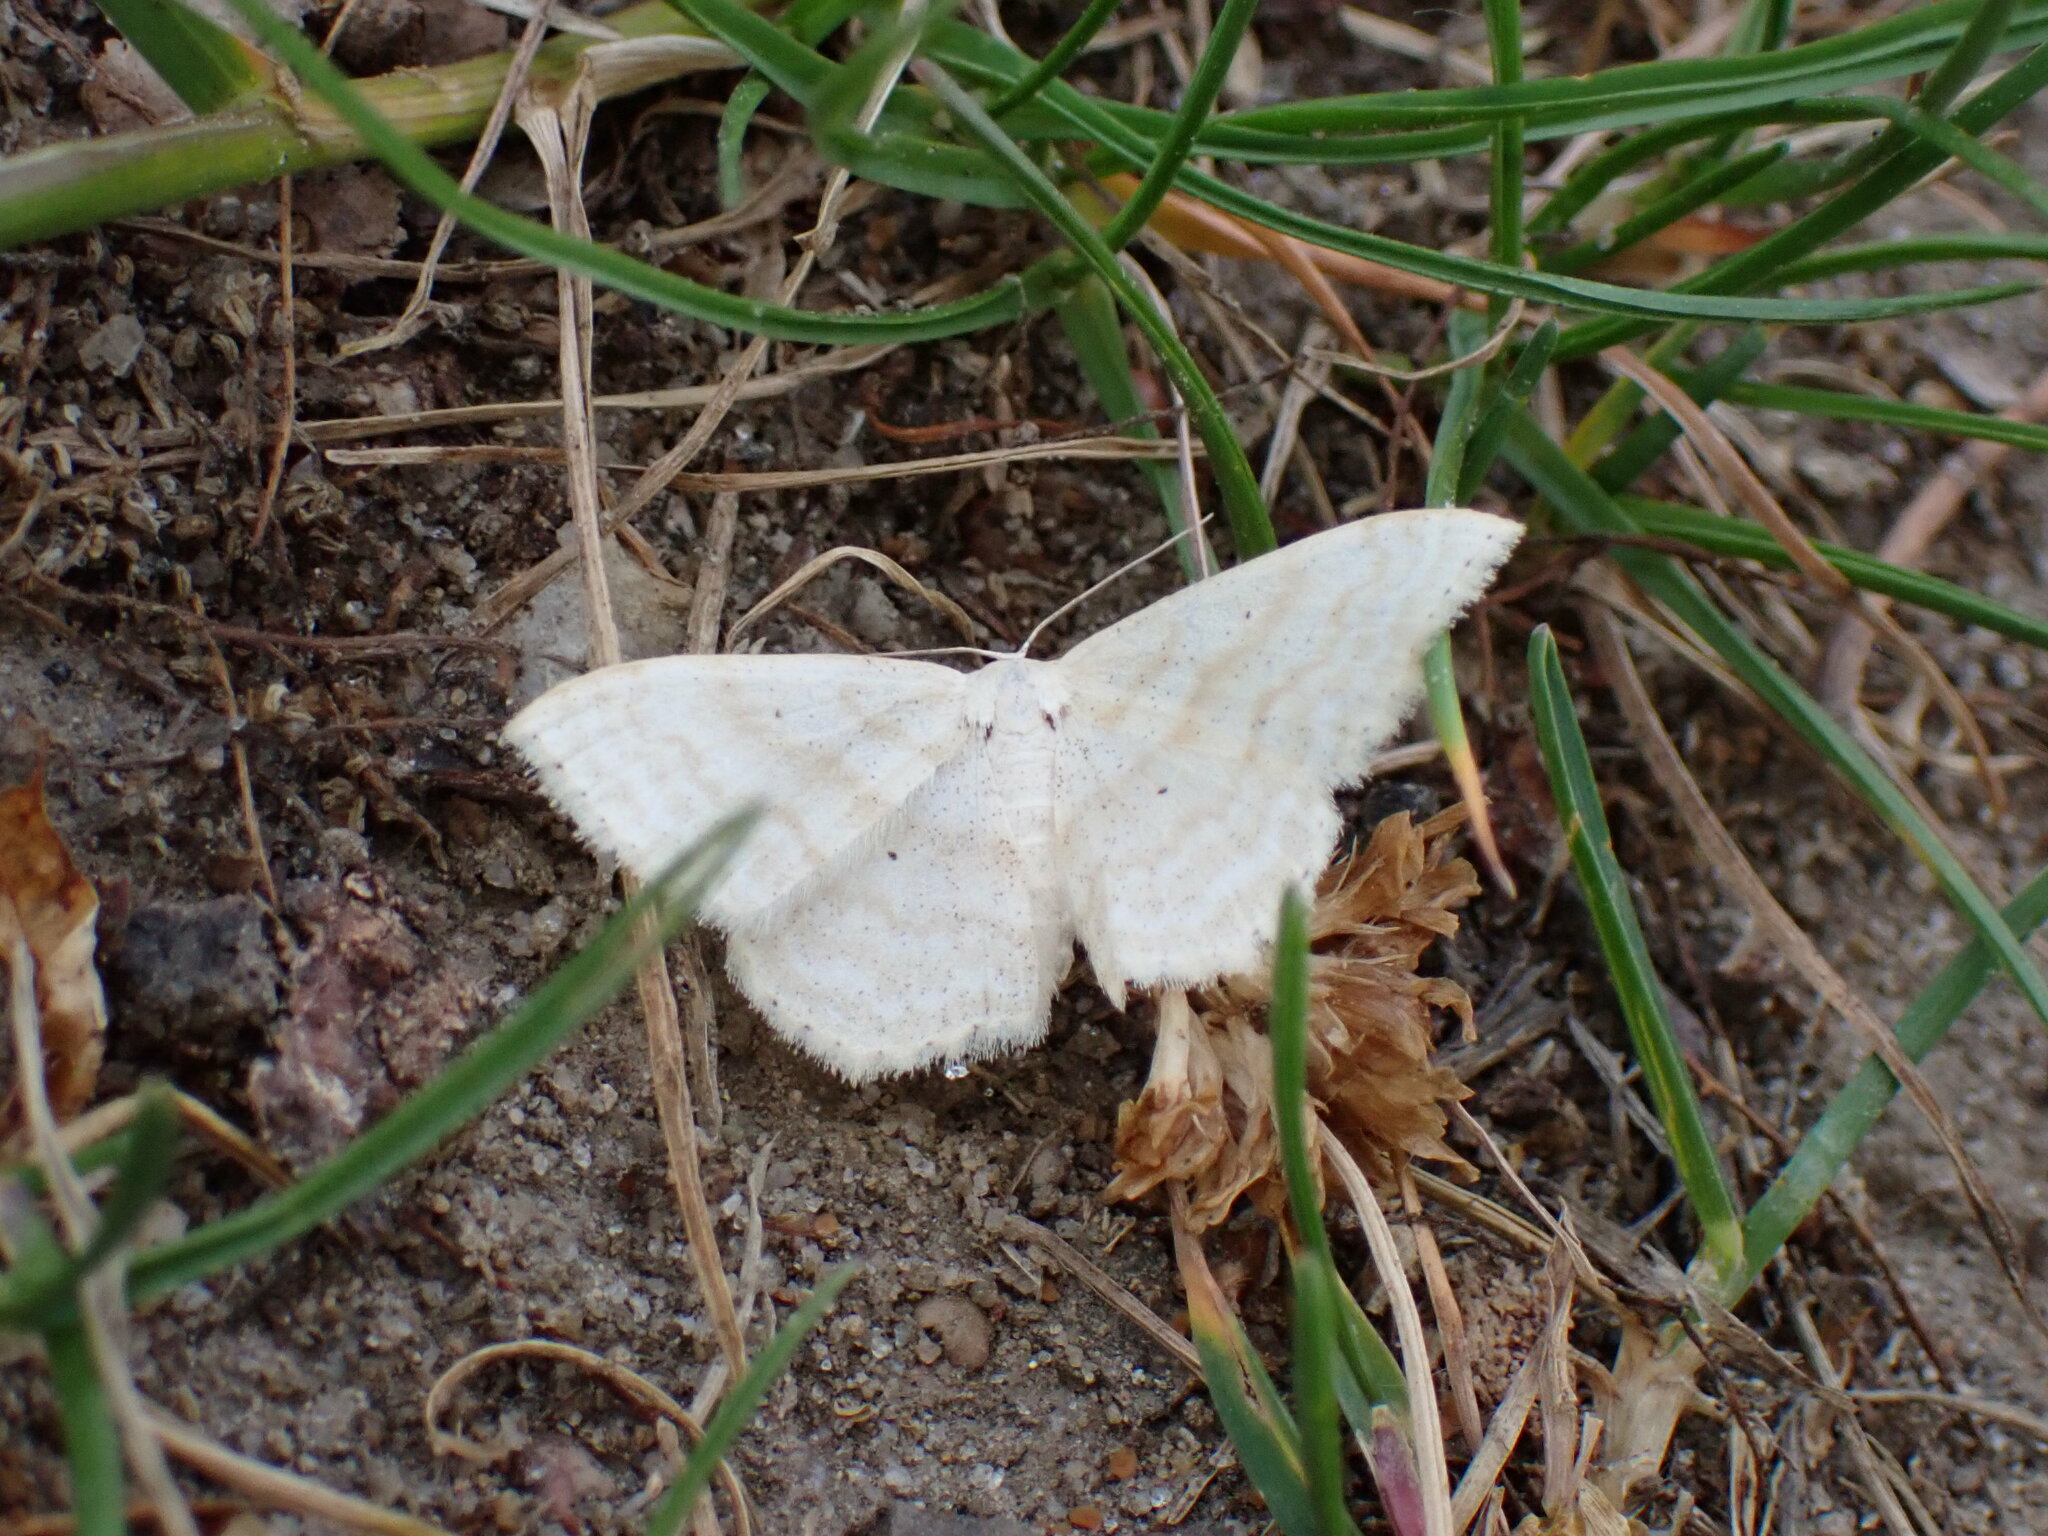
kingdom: Animalia
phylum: Arthropoda
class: Insecta
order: Lepidoptera
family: Geometridae
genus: Scopula
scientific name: Scopula limboundata
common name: Large lace border
